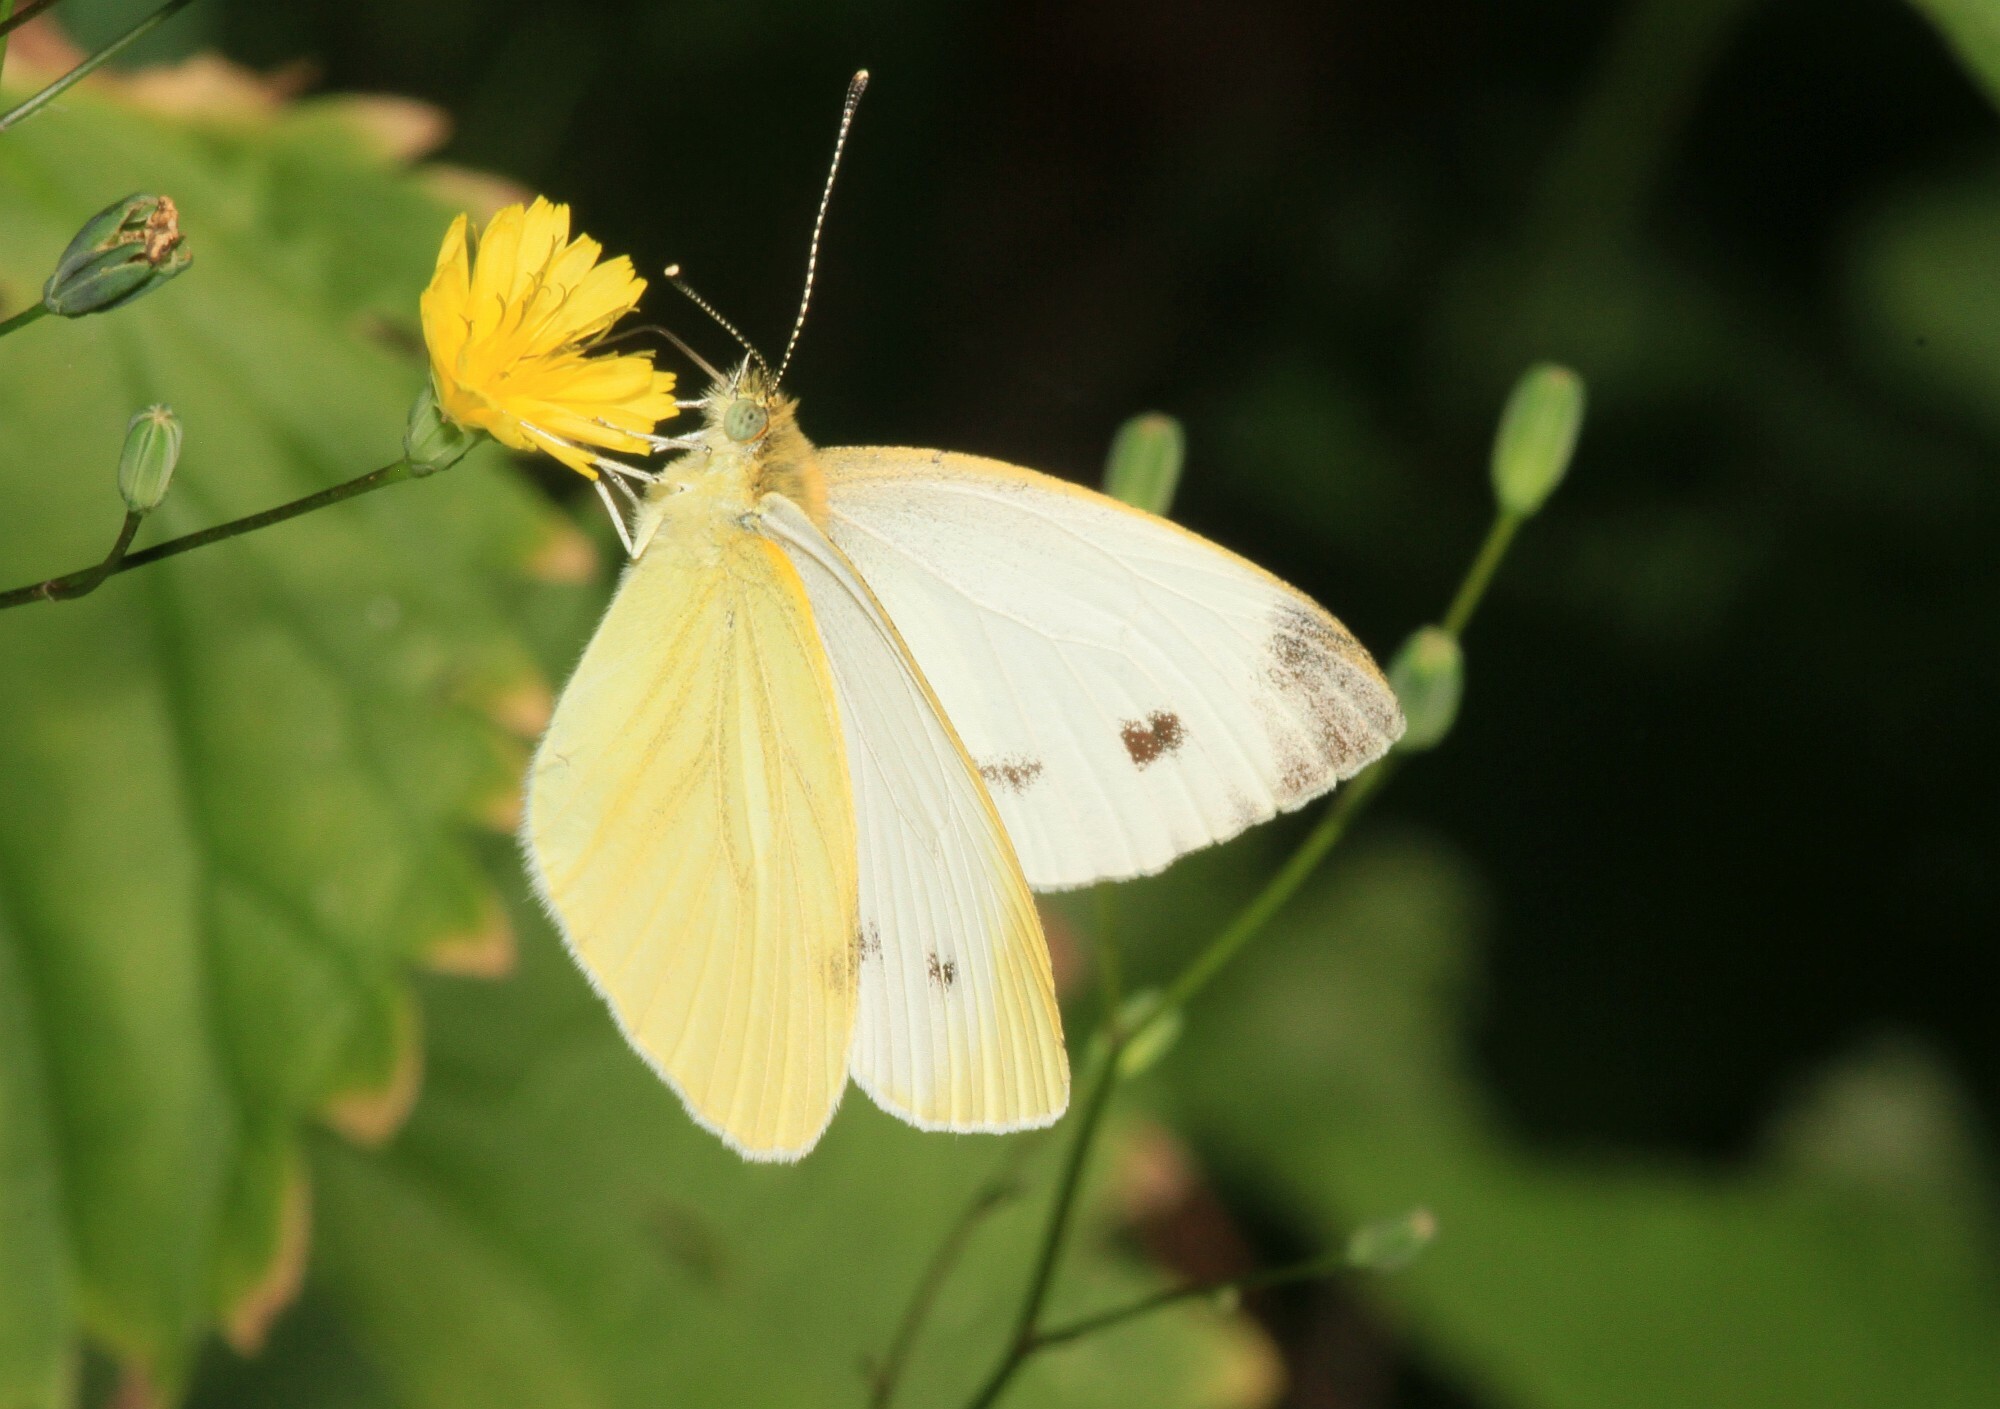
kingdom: Animalia
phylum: Arthropoda
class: Insecta
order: Lepidoptera
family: Pieridae
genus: Pieris
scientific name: Pieris napi
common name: Green-veined white
